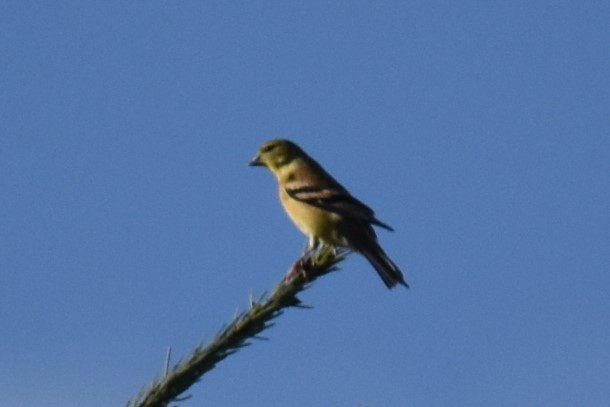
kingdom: Animalia
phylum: Chordata
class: Aves
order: Passeriformes
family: Fringillidae
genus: Spinus
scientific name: Spinus tristis
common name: American goldfinch
